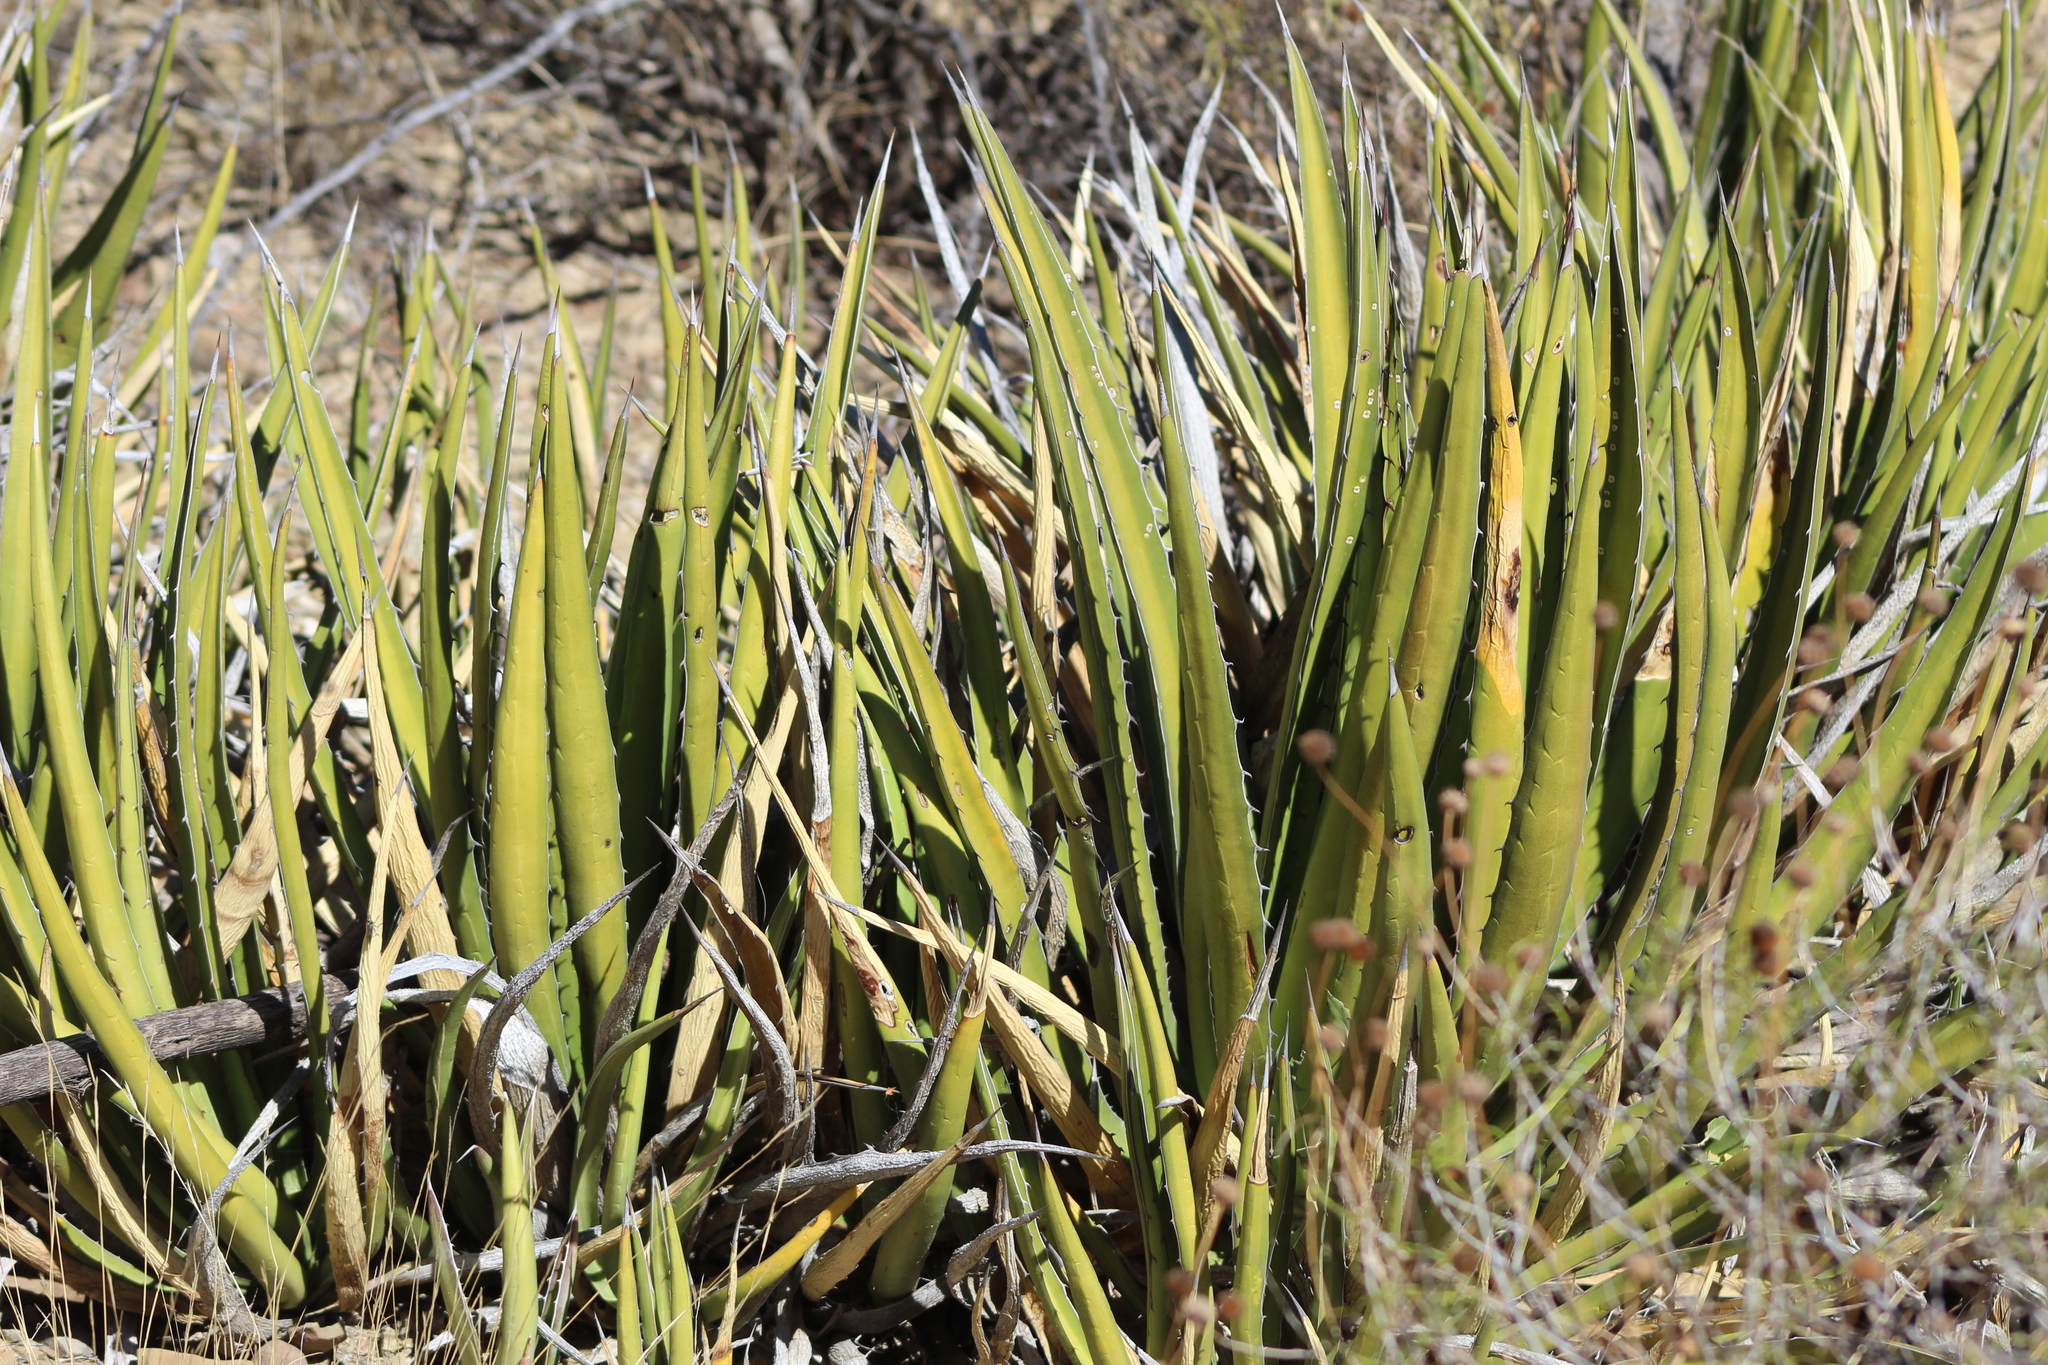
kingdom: Plantae
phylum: Tracheophyta
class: Liliopsida
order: Asparagales
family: Asparagaceae
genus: Agave
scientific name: Agave lechuguilla
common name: Lecheguilla agave
